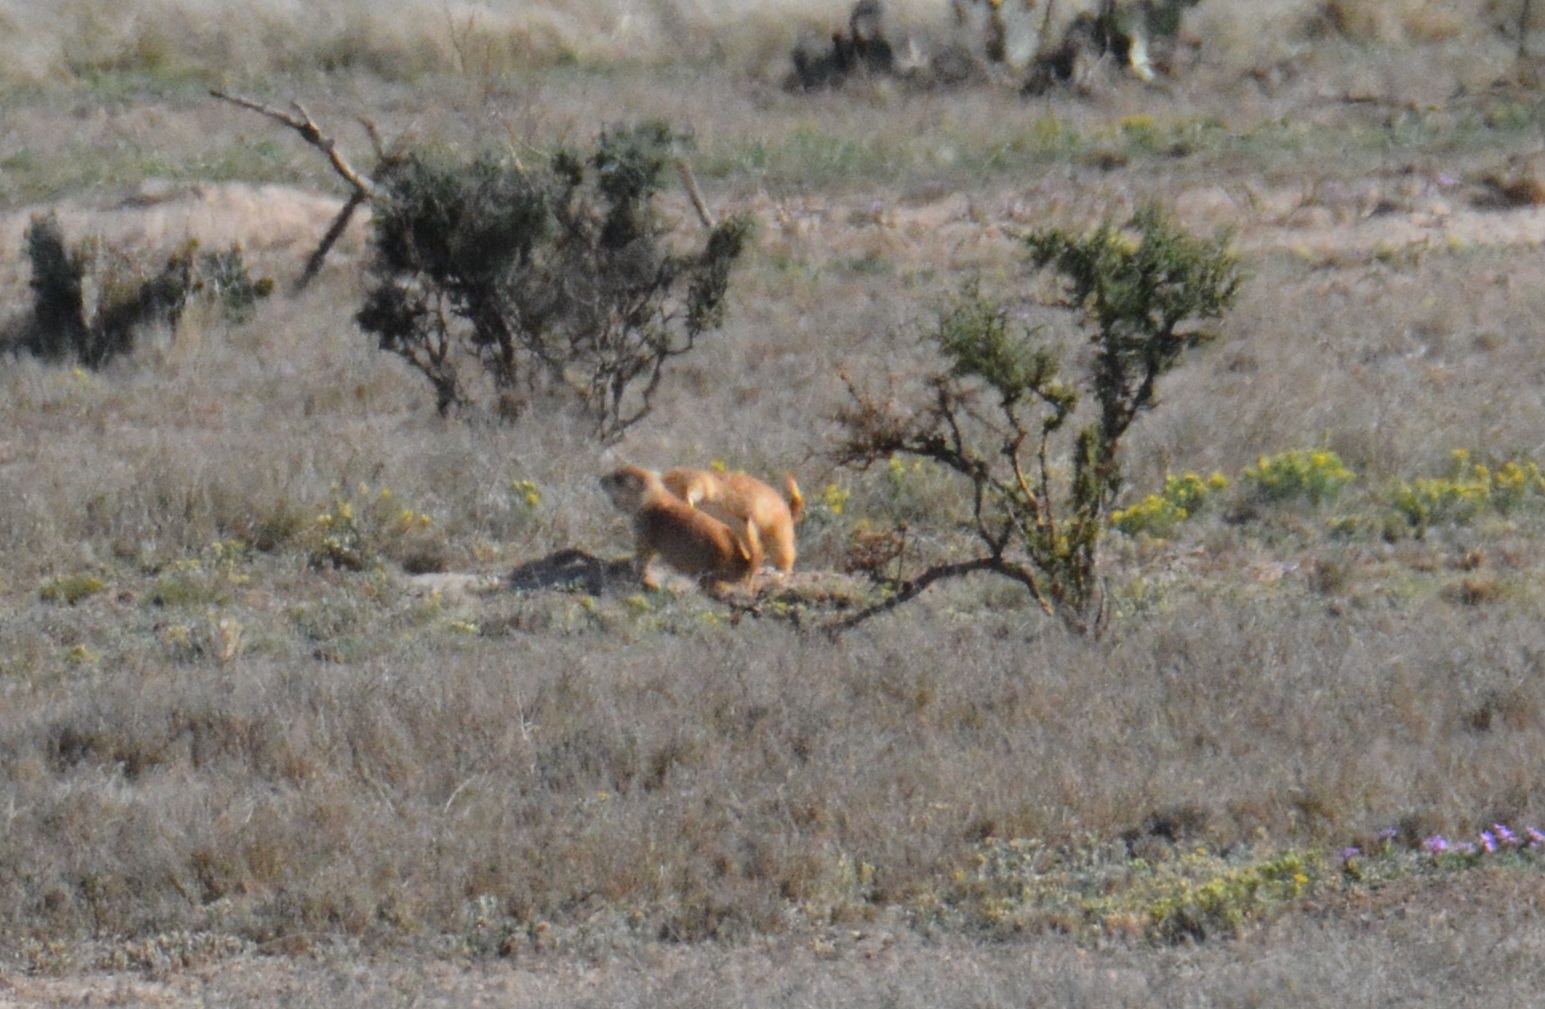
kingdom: Animalia
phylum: Chordata
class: Mammalia
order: Rodentia
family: Sciuridae
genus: Cynomys
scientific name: Cynomys ludovicianus
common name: Black-tailed prairie dog
